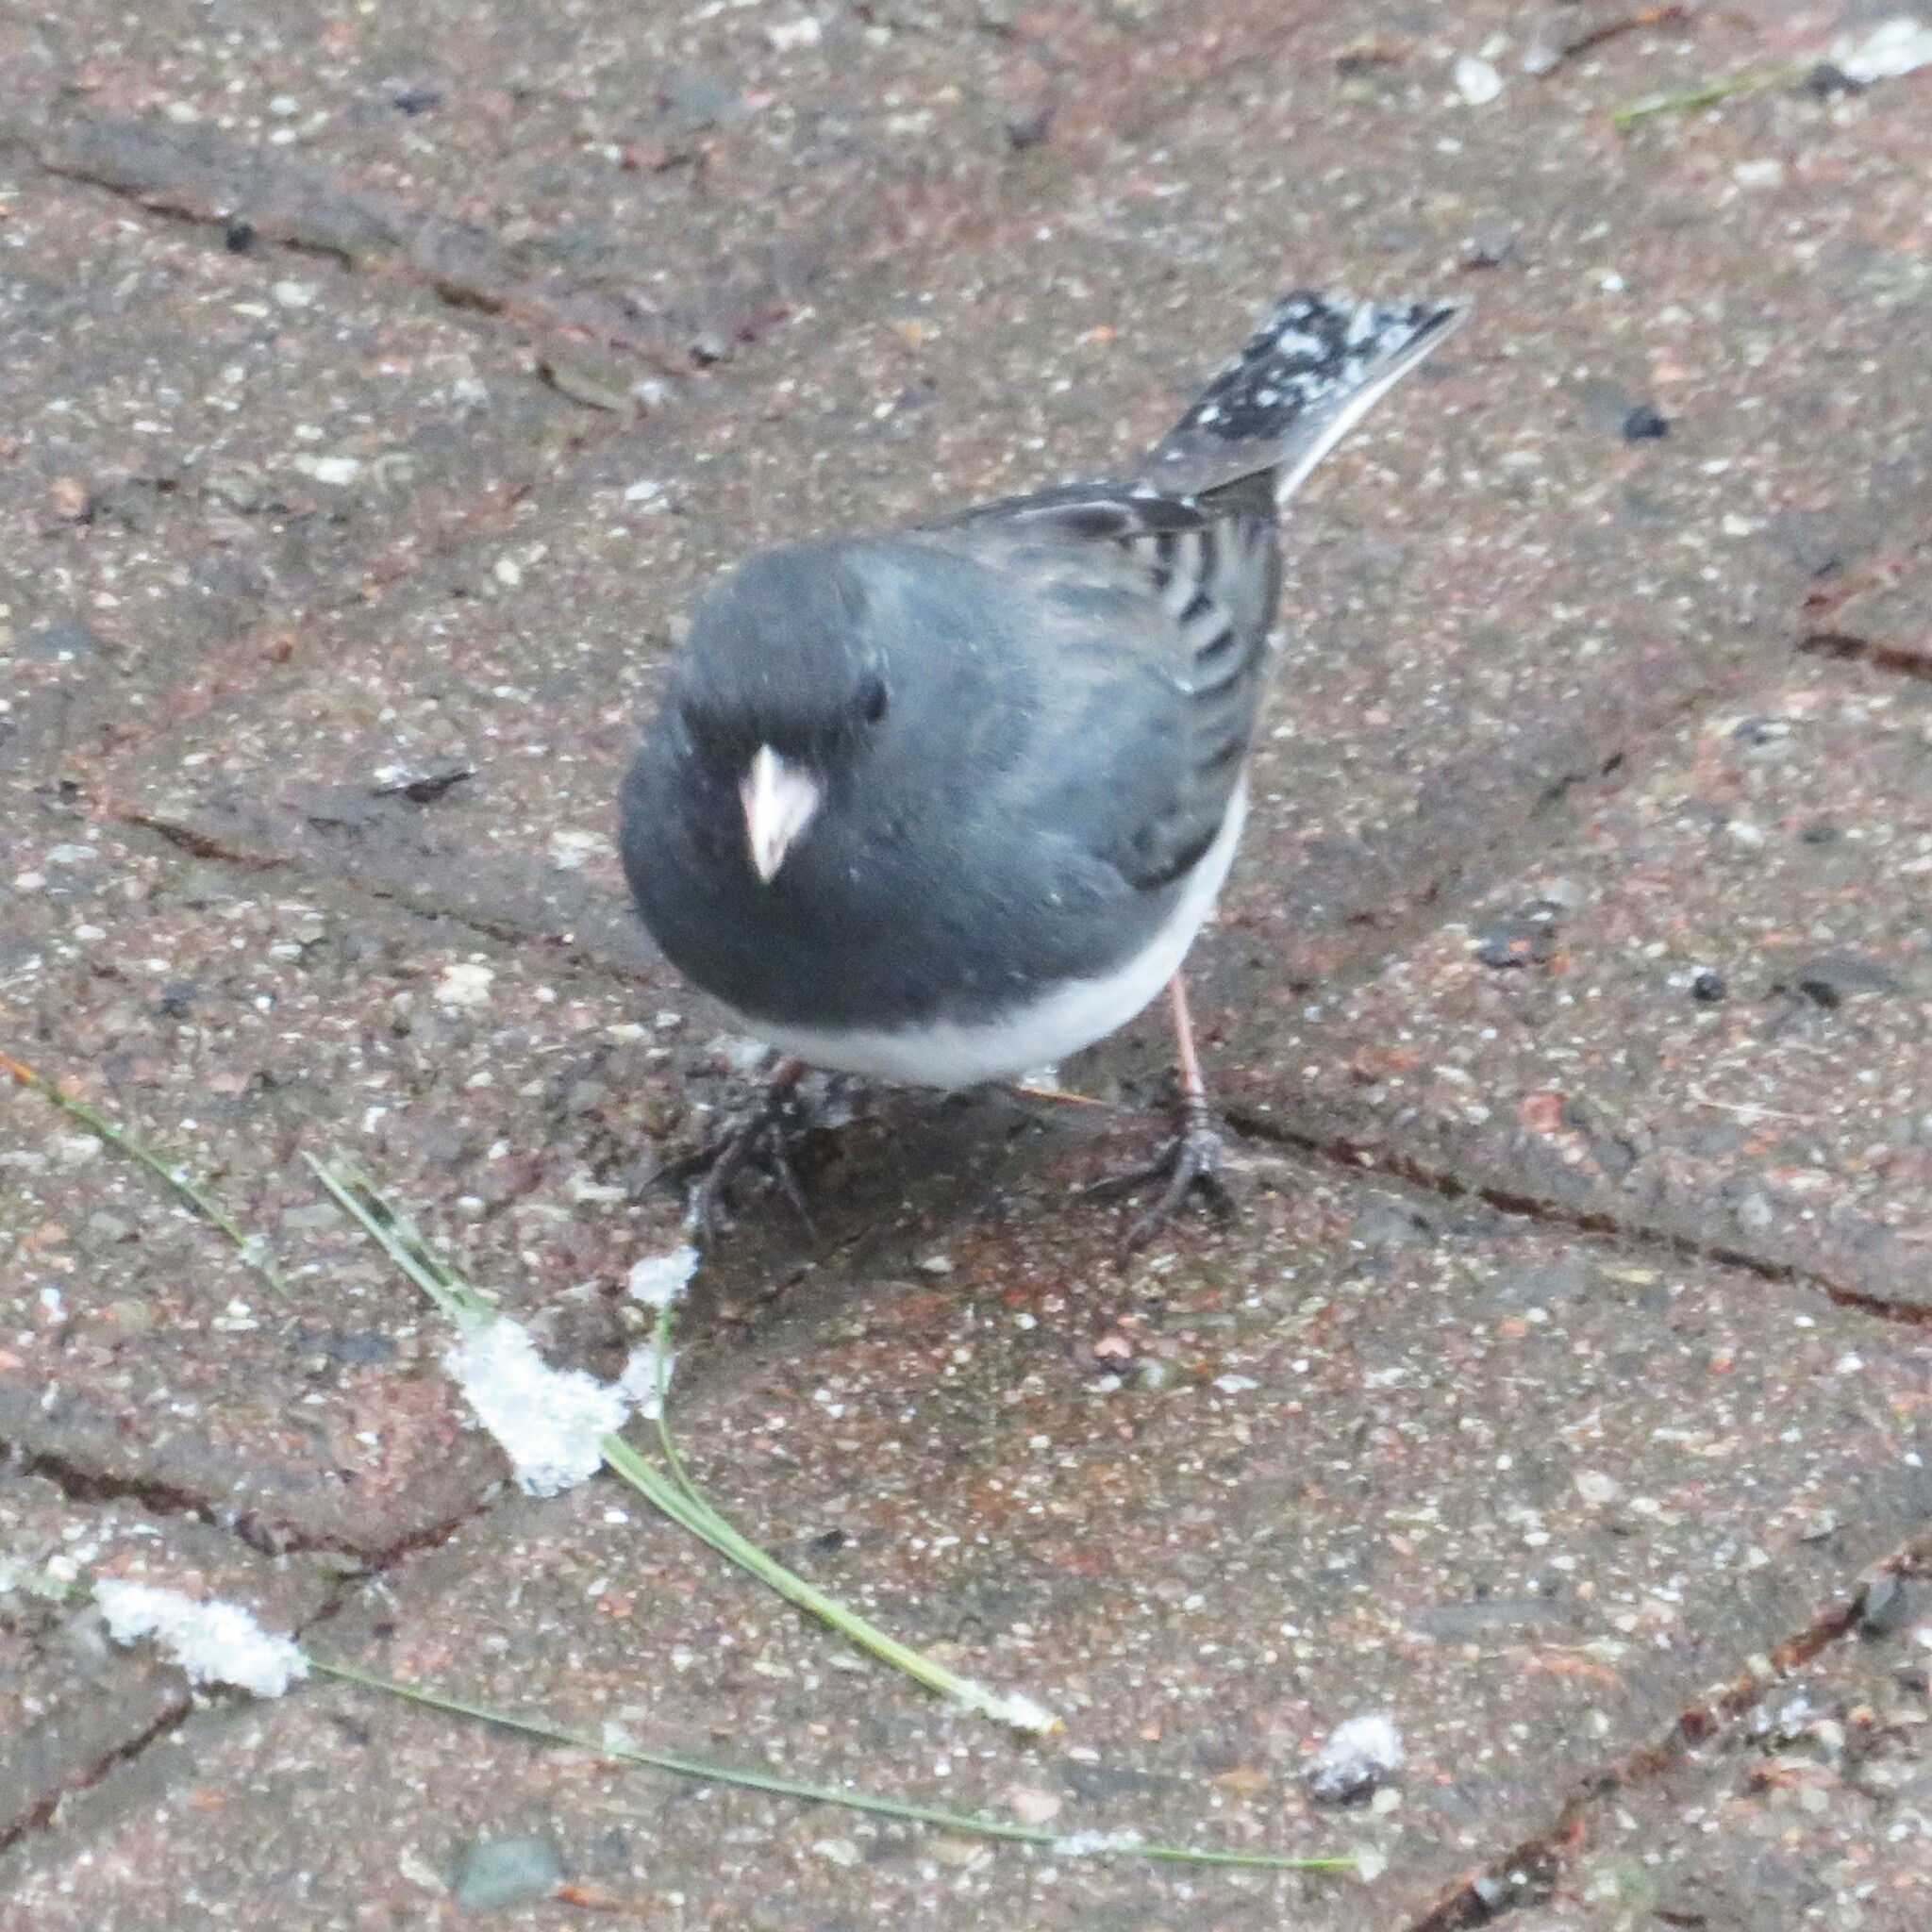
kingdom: Animalia
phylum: Chordata
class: Aves
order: Passeriformes
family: Passerellidae
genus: Junco
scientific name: Junco hyemalis
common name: Dark-eyed junco
